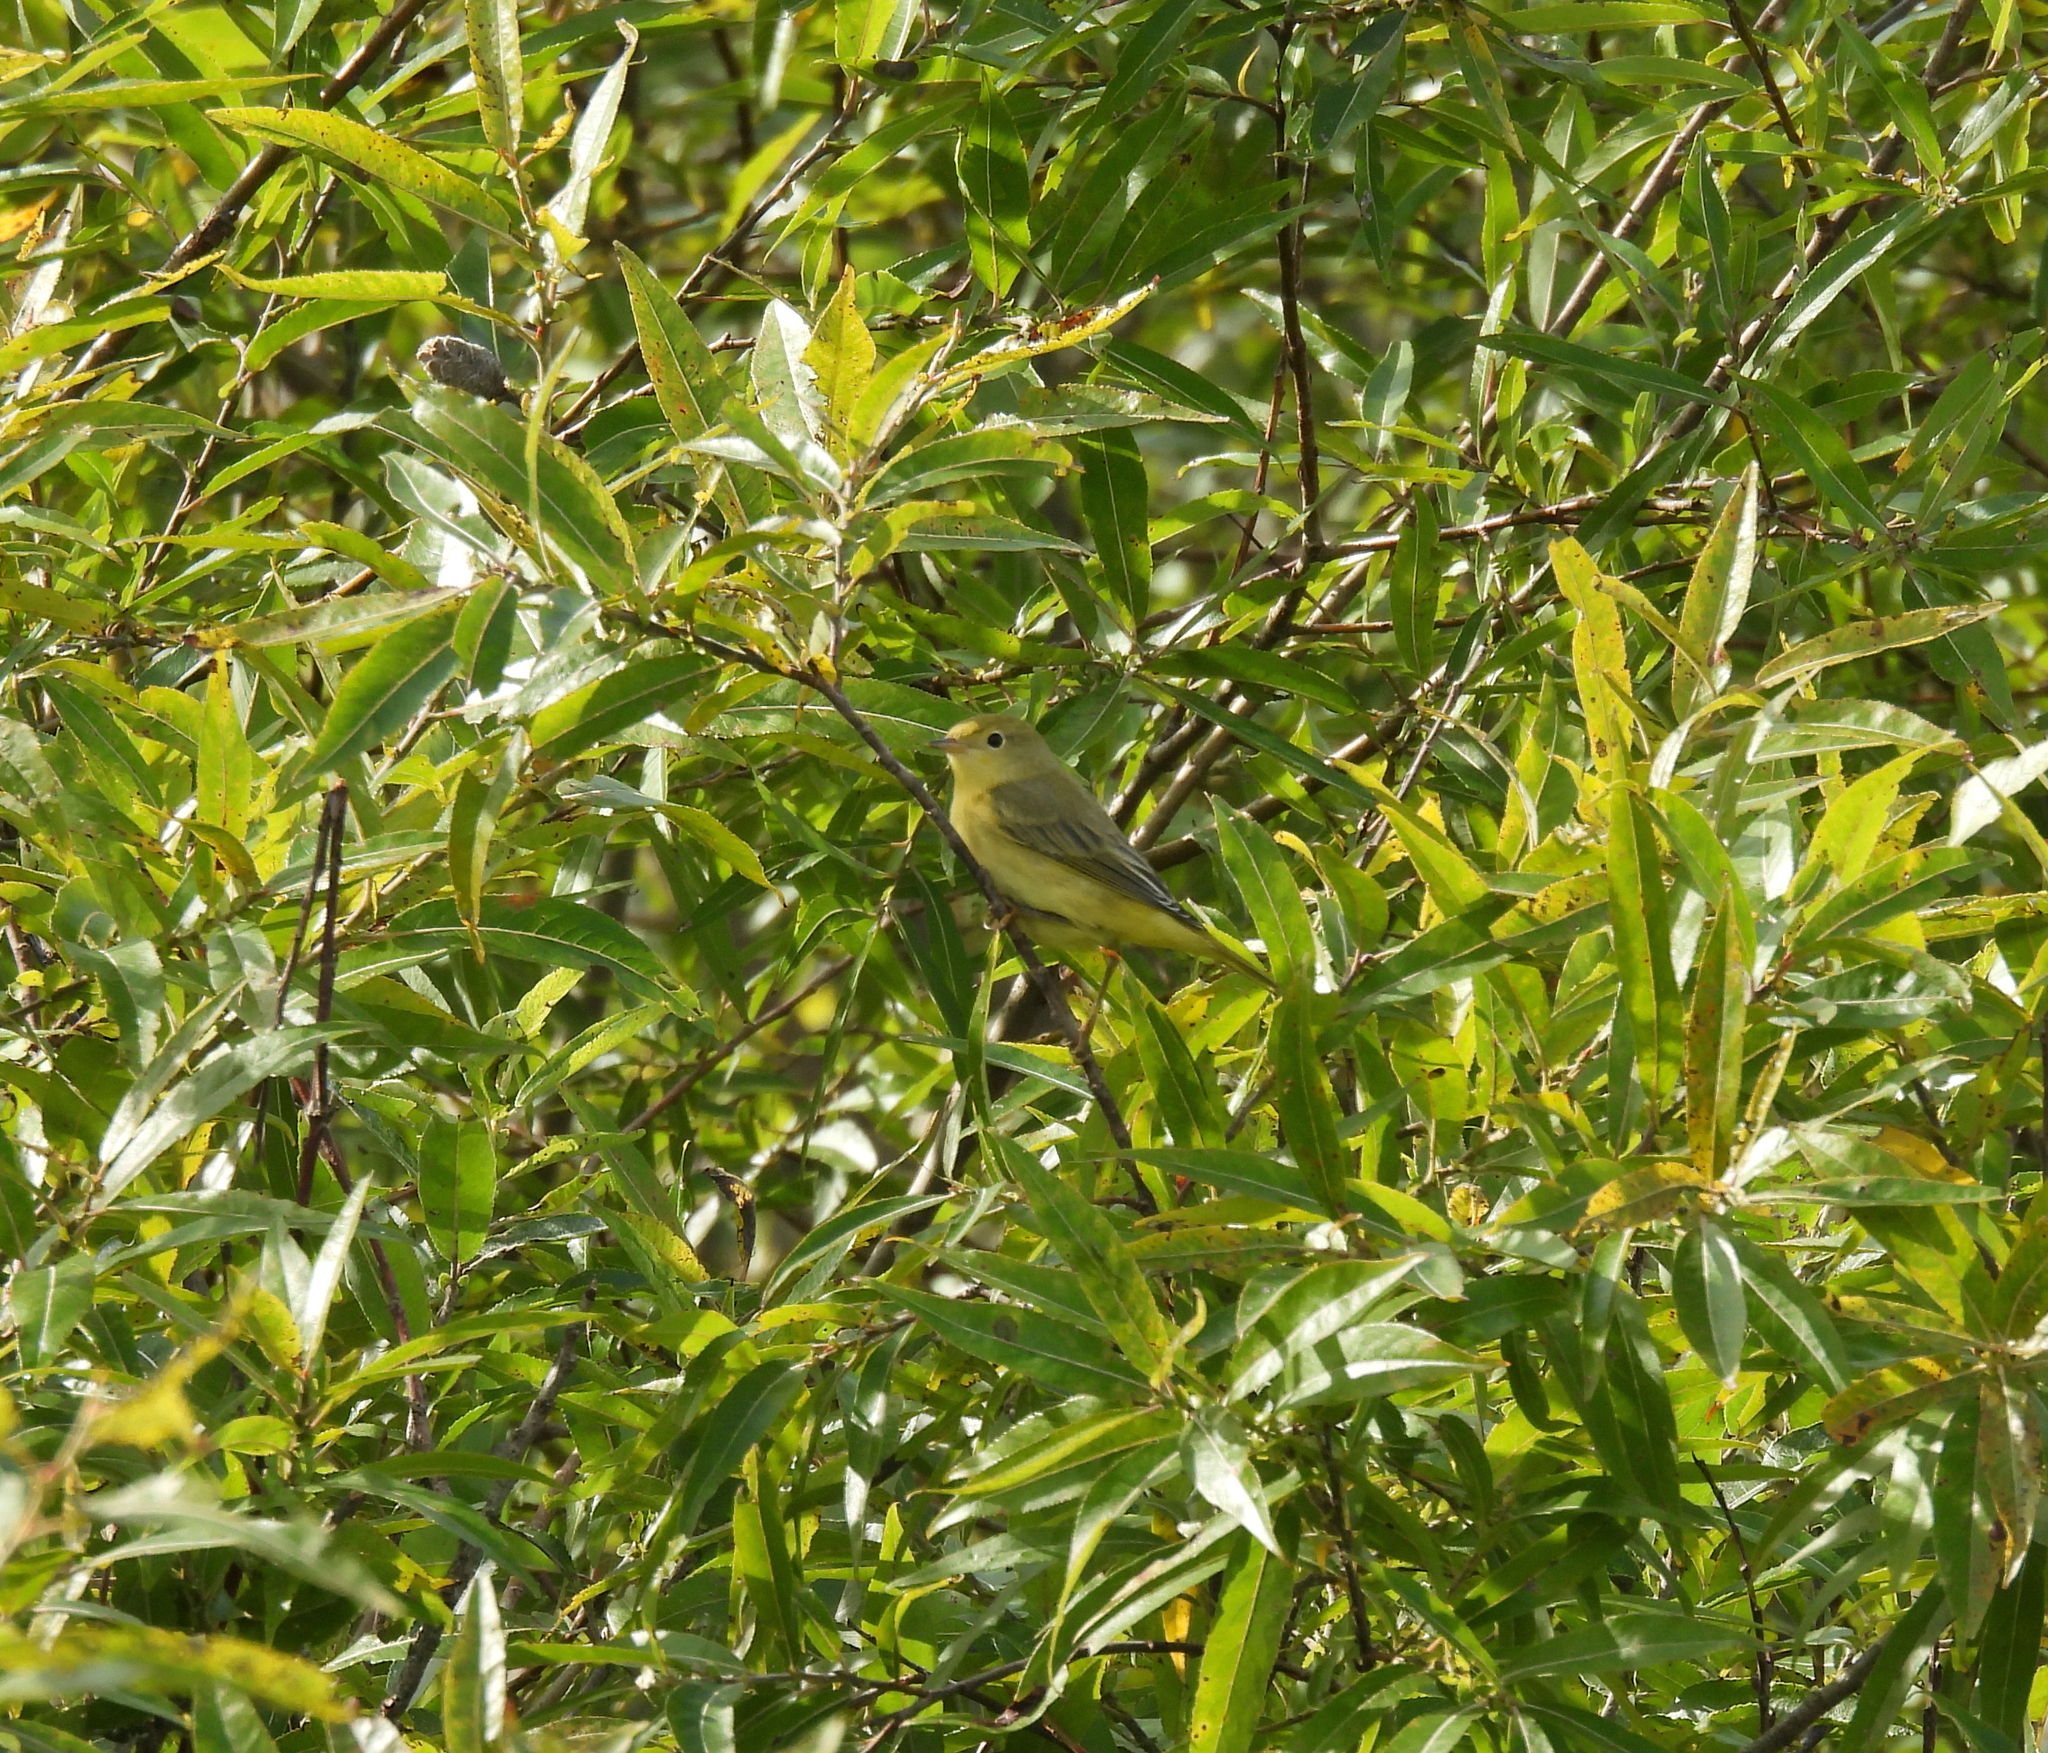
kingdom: Animalia
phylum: Chordata
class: Aves
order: Passeriformes
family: Parulidae
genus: Setophaga
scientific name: Setophaga petechia
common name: Yellow warbler
